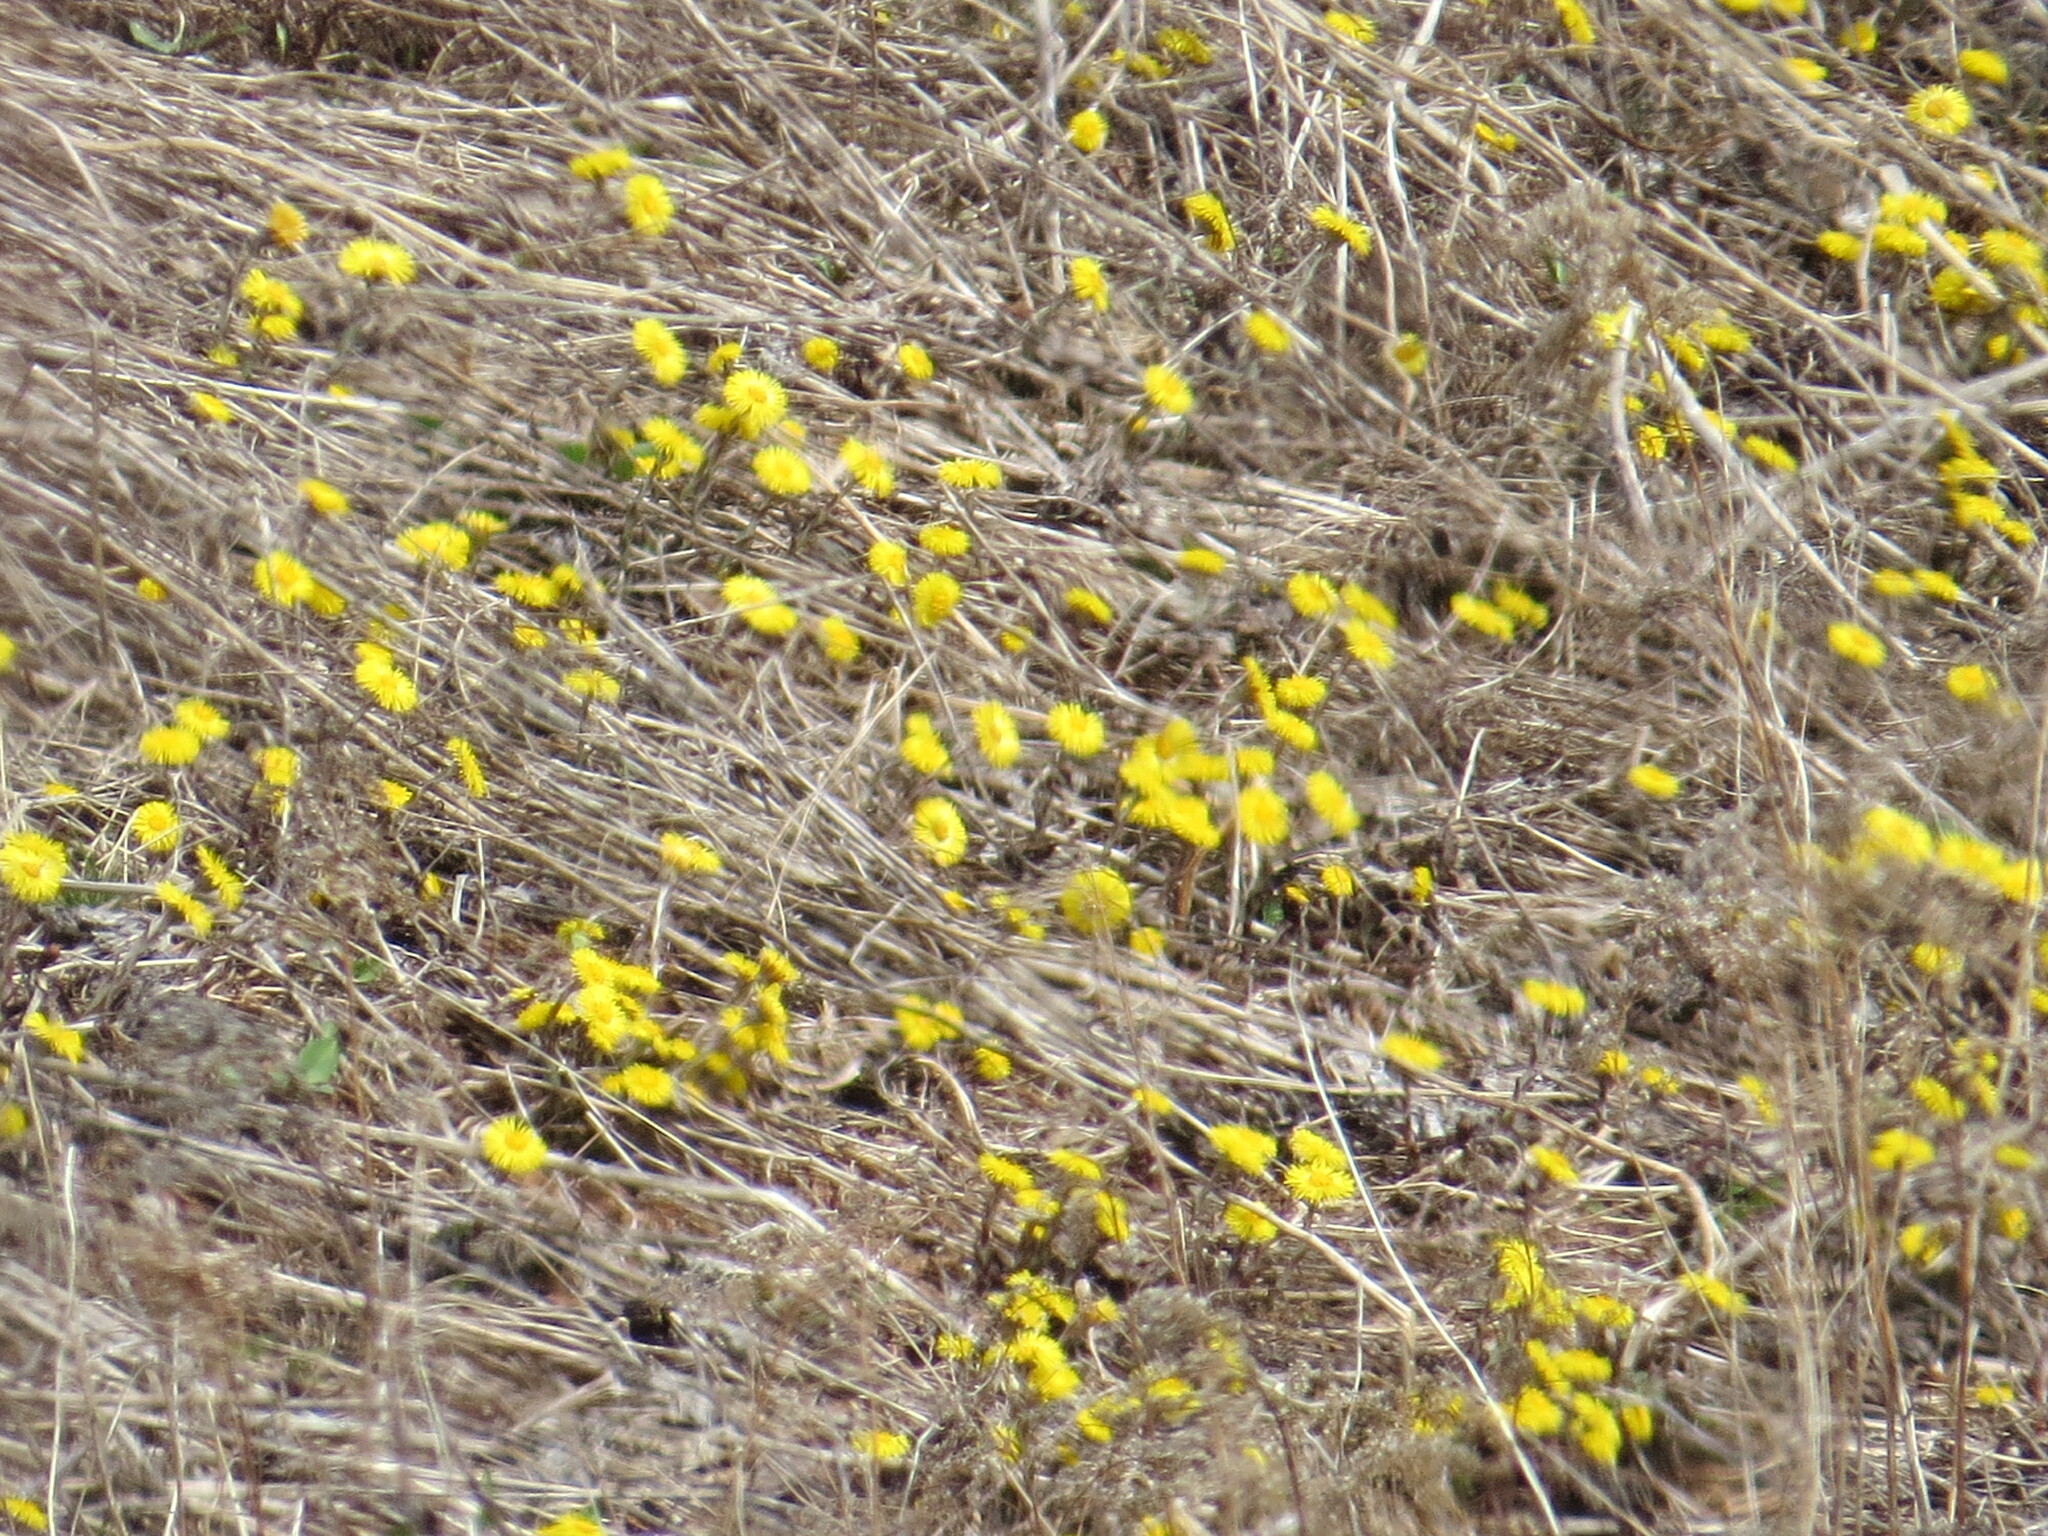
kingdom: Plantae
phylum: Tracheophyta
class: Magnoliopsida
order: Asterales
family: Asteraceae
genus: Tussilago
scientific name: Tussilago farfara
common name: Coltsfoot
